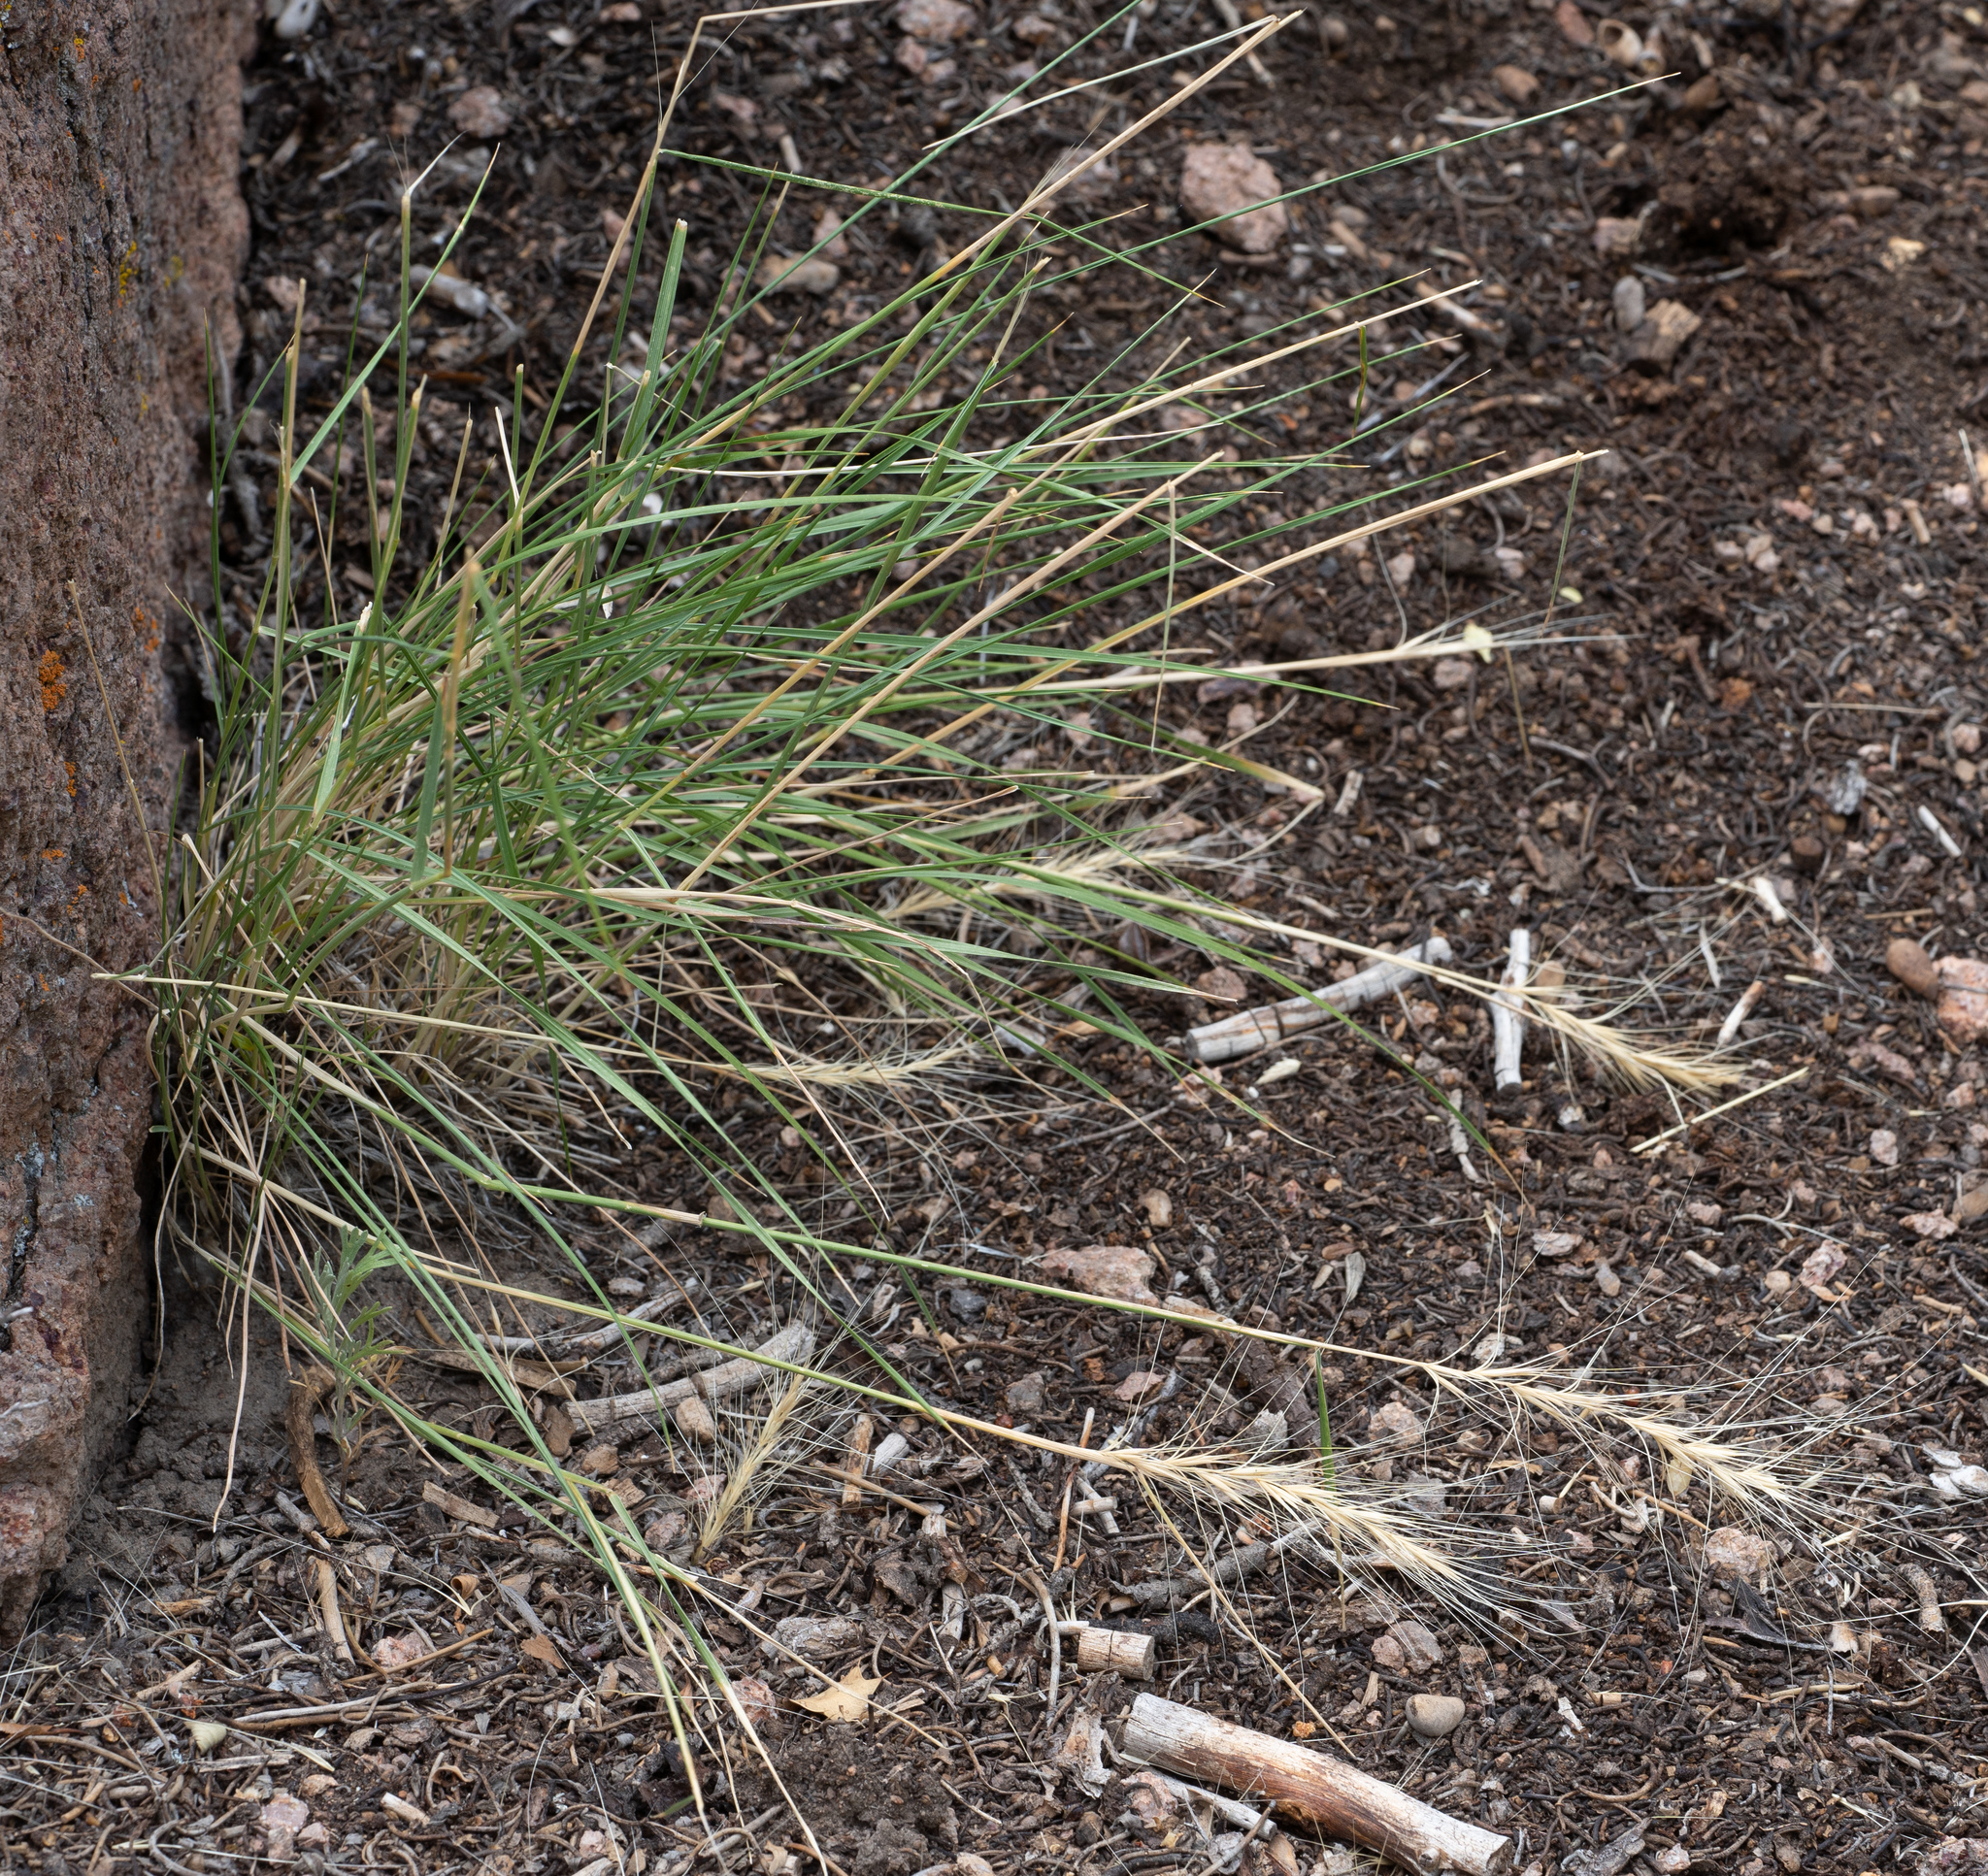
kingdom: Plantae
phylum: Tracheophyta
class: Liliopsida
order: Poales
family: Poaceae
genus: Elymus
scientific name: Elymus elymoides
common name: Bottlebrush squirreltail
